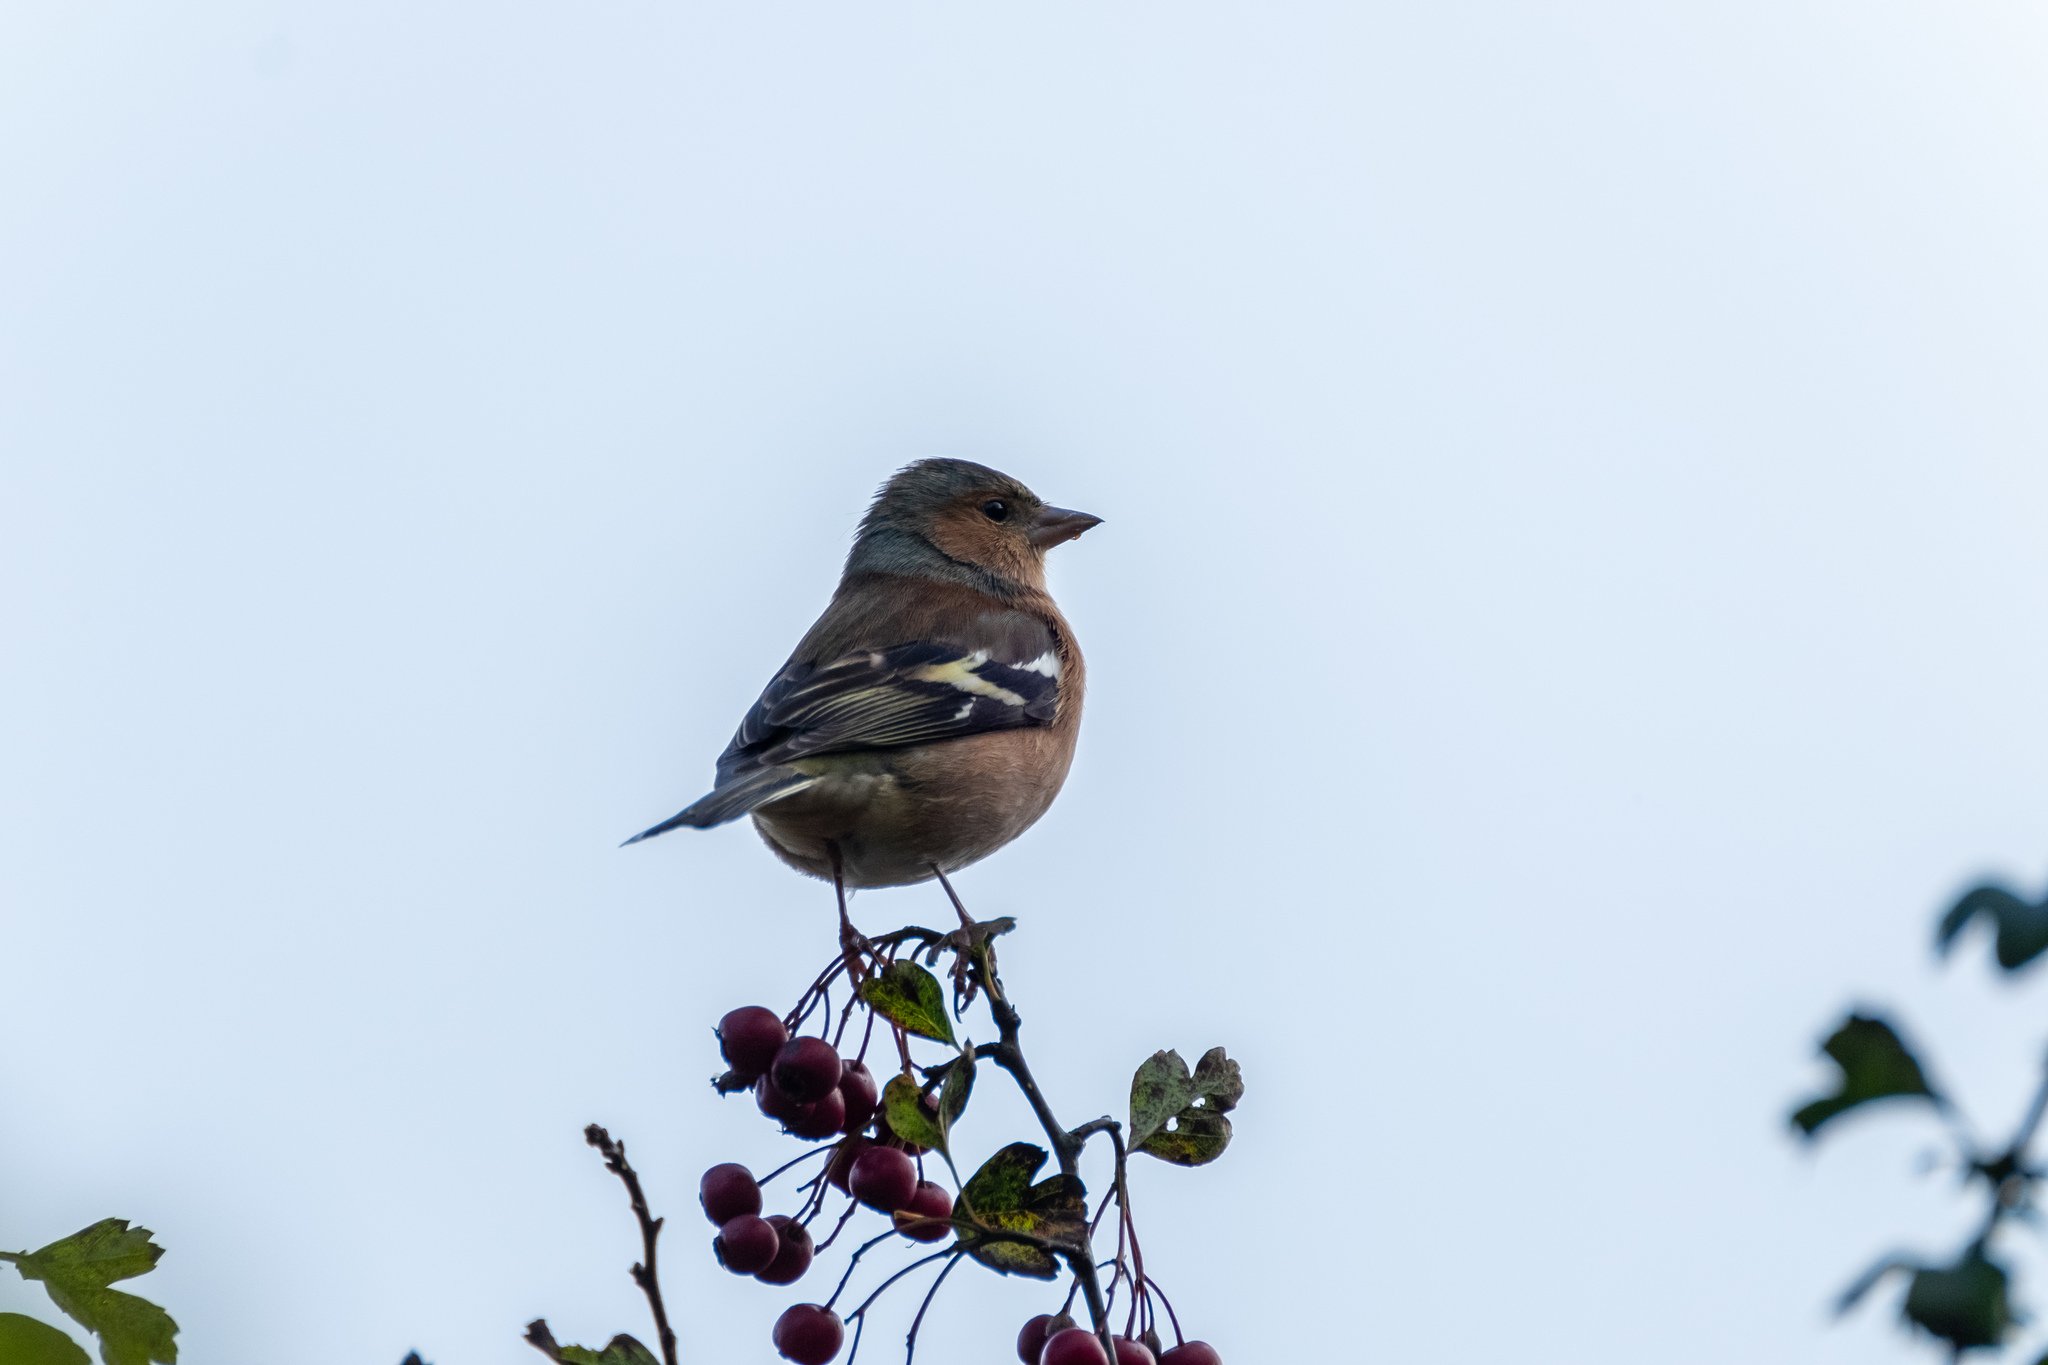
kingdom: Animalia
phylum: Chordata
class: Aves
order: Passeriformes
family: Fringillidae
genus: Fringilla
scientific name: Fringilla coelebs
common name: Common chaffinch
